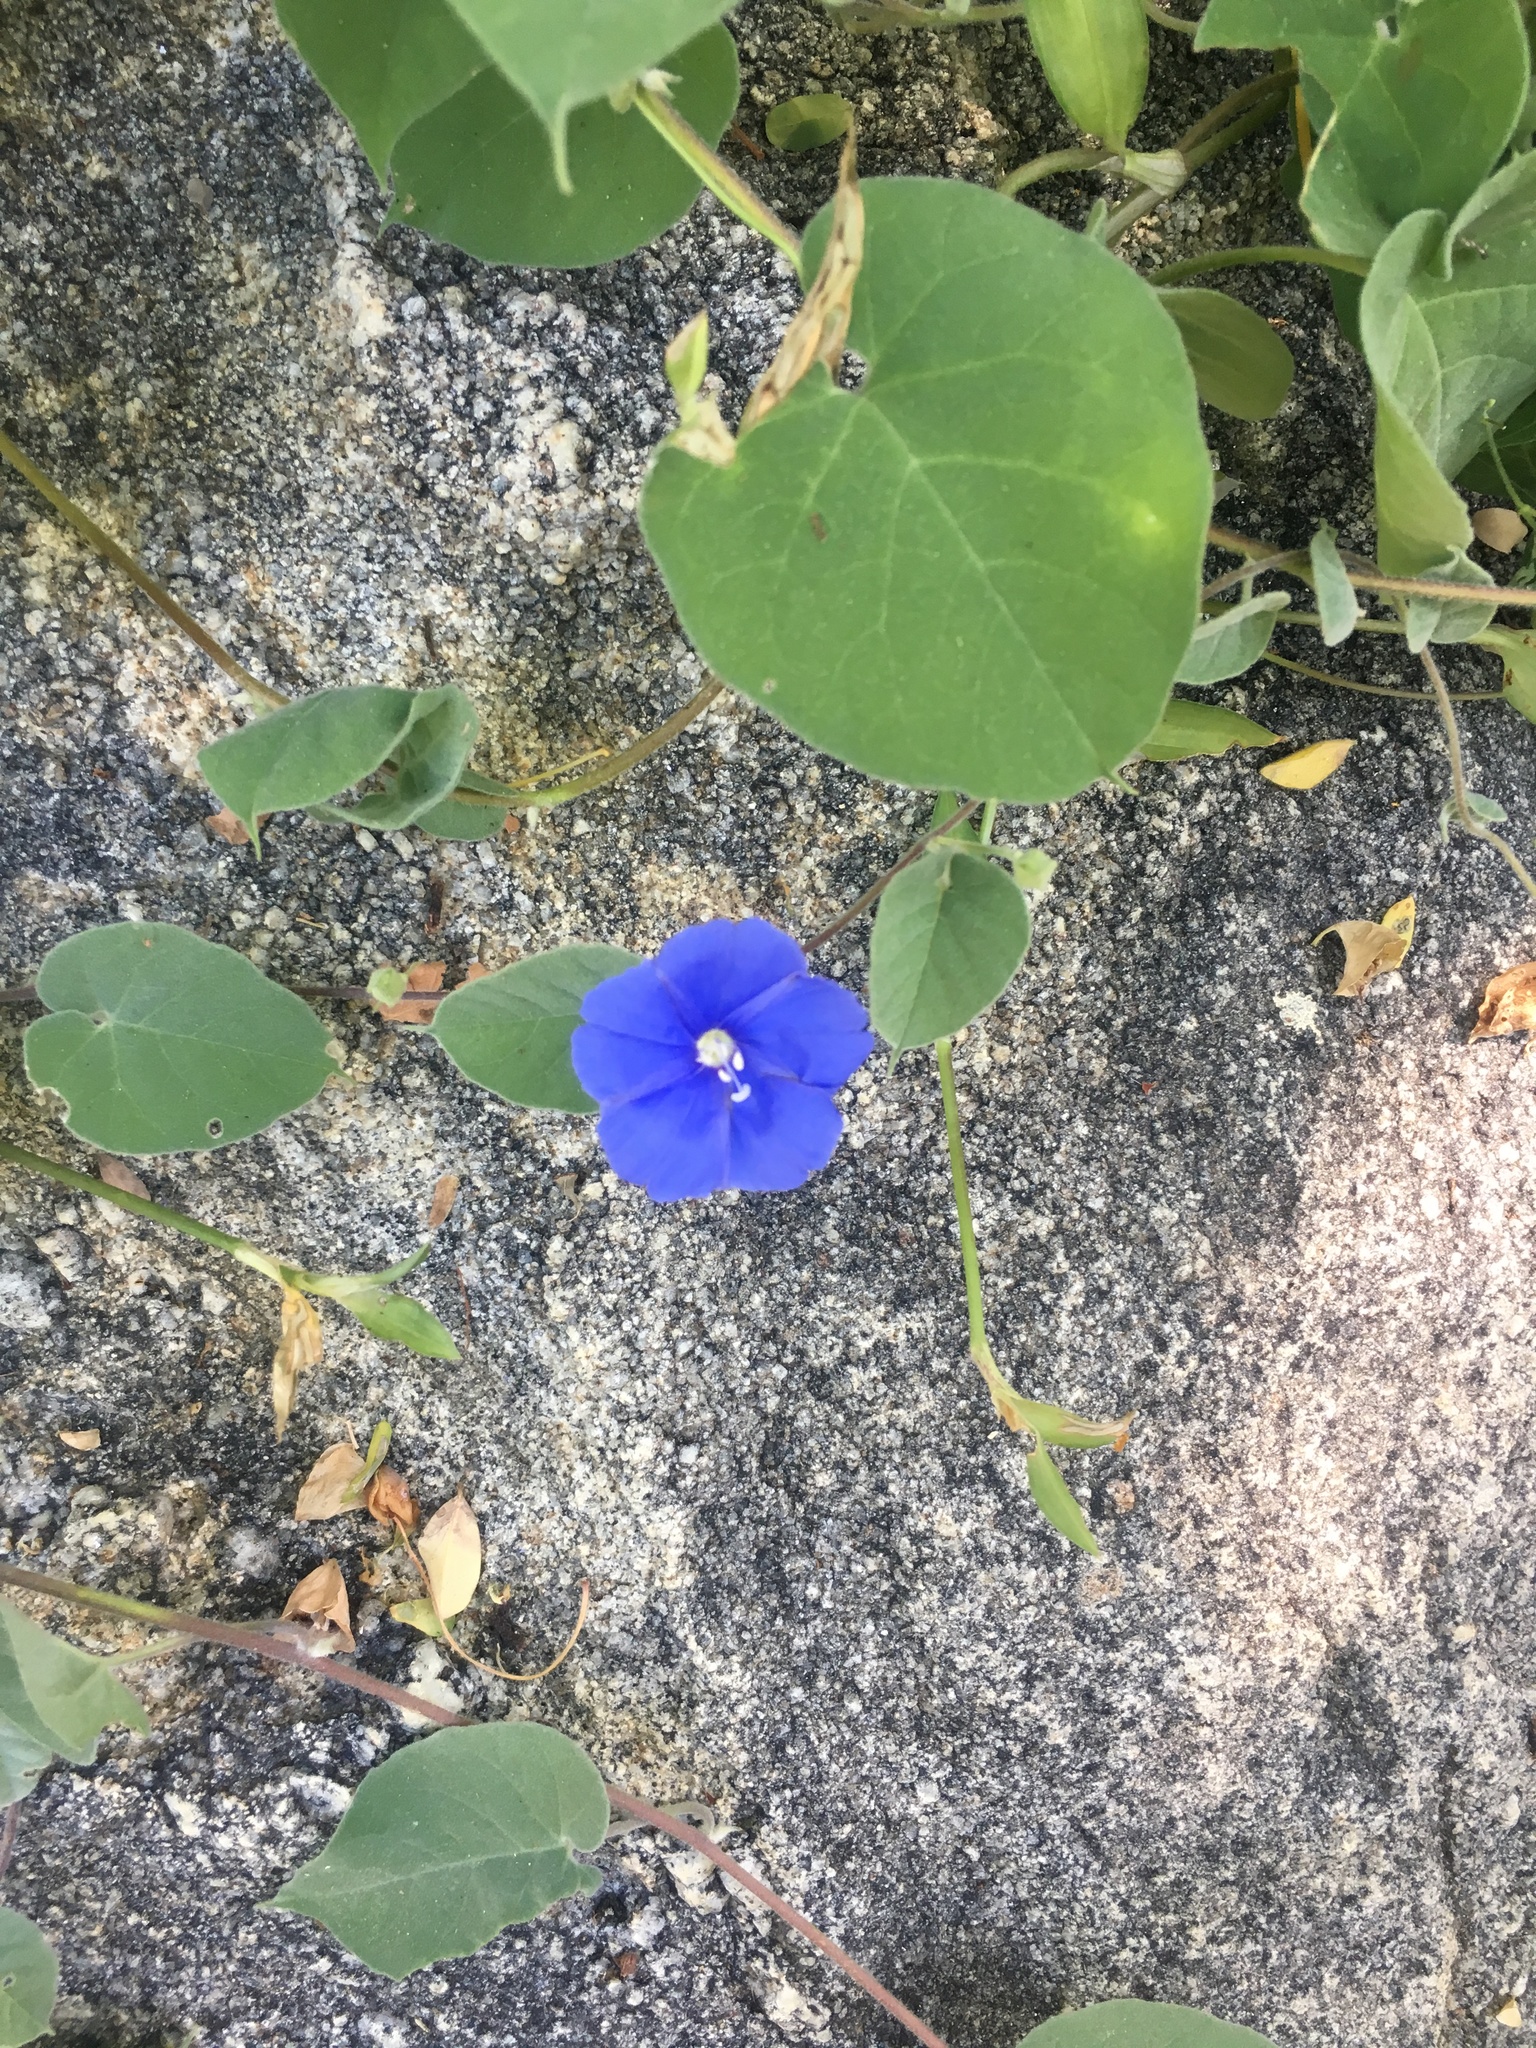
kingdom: Plantae
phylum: Tracheophyta
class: Magnoliopsida
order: Solanales
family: Convolvulaceae
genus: Jacquemontia
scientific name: Jacquemontia abutiloides
